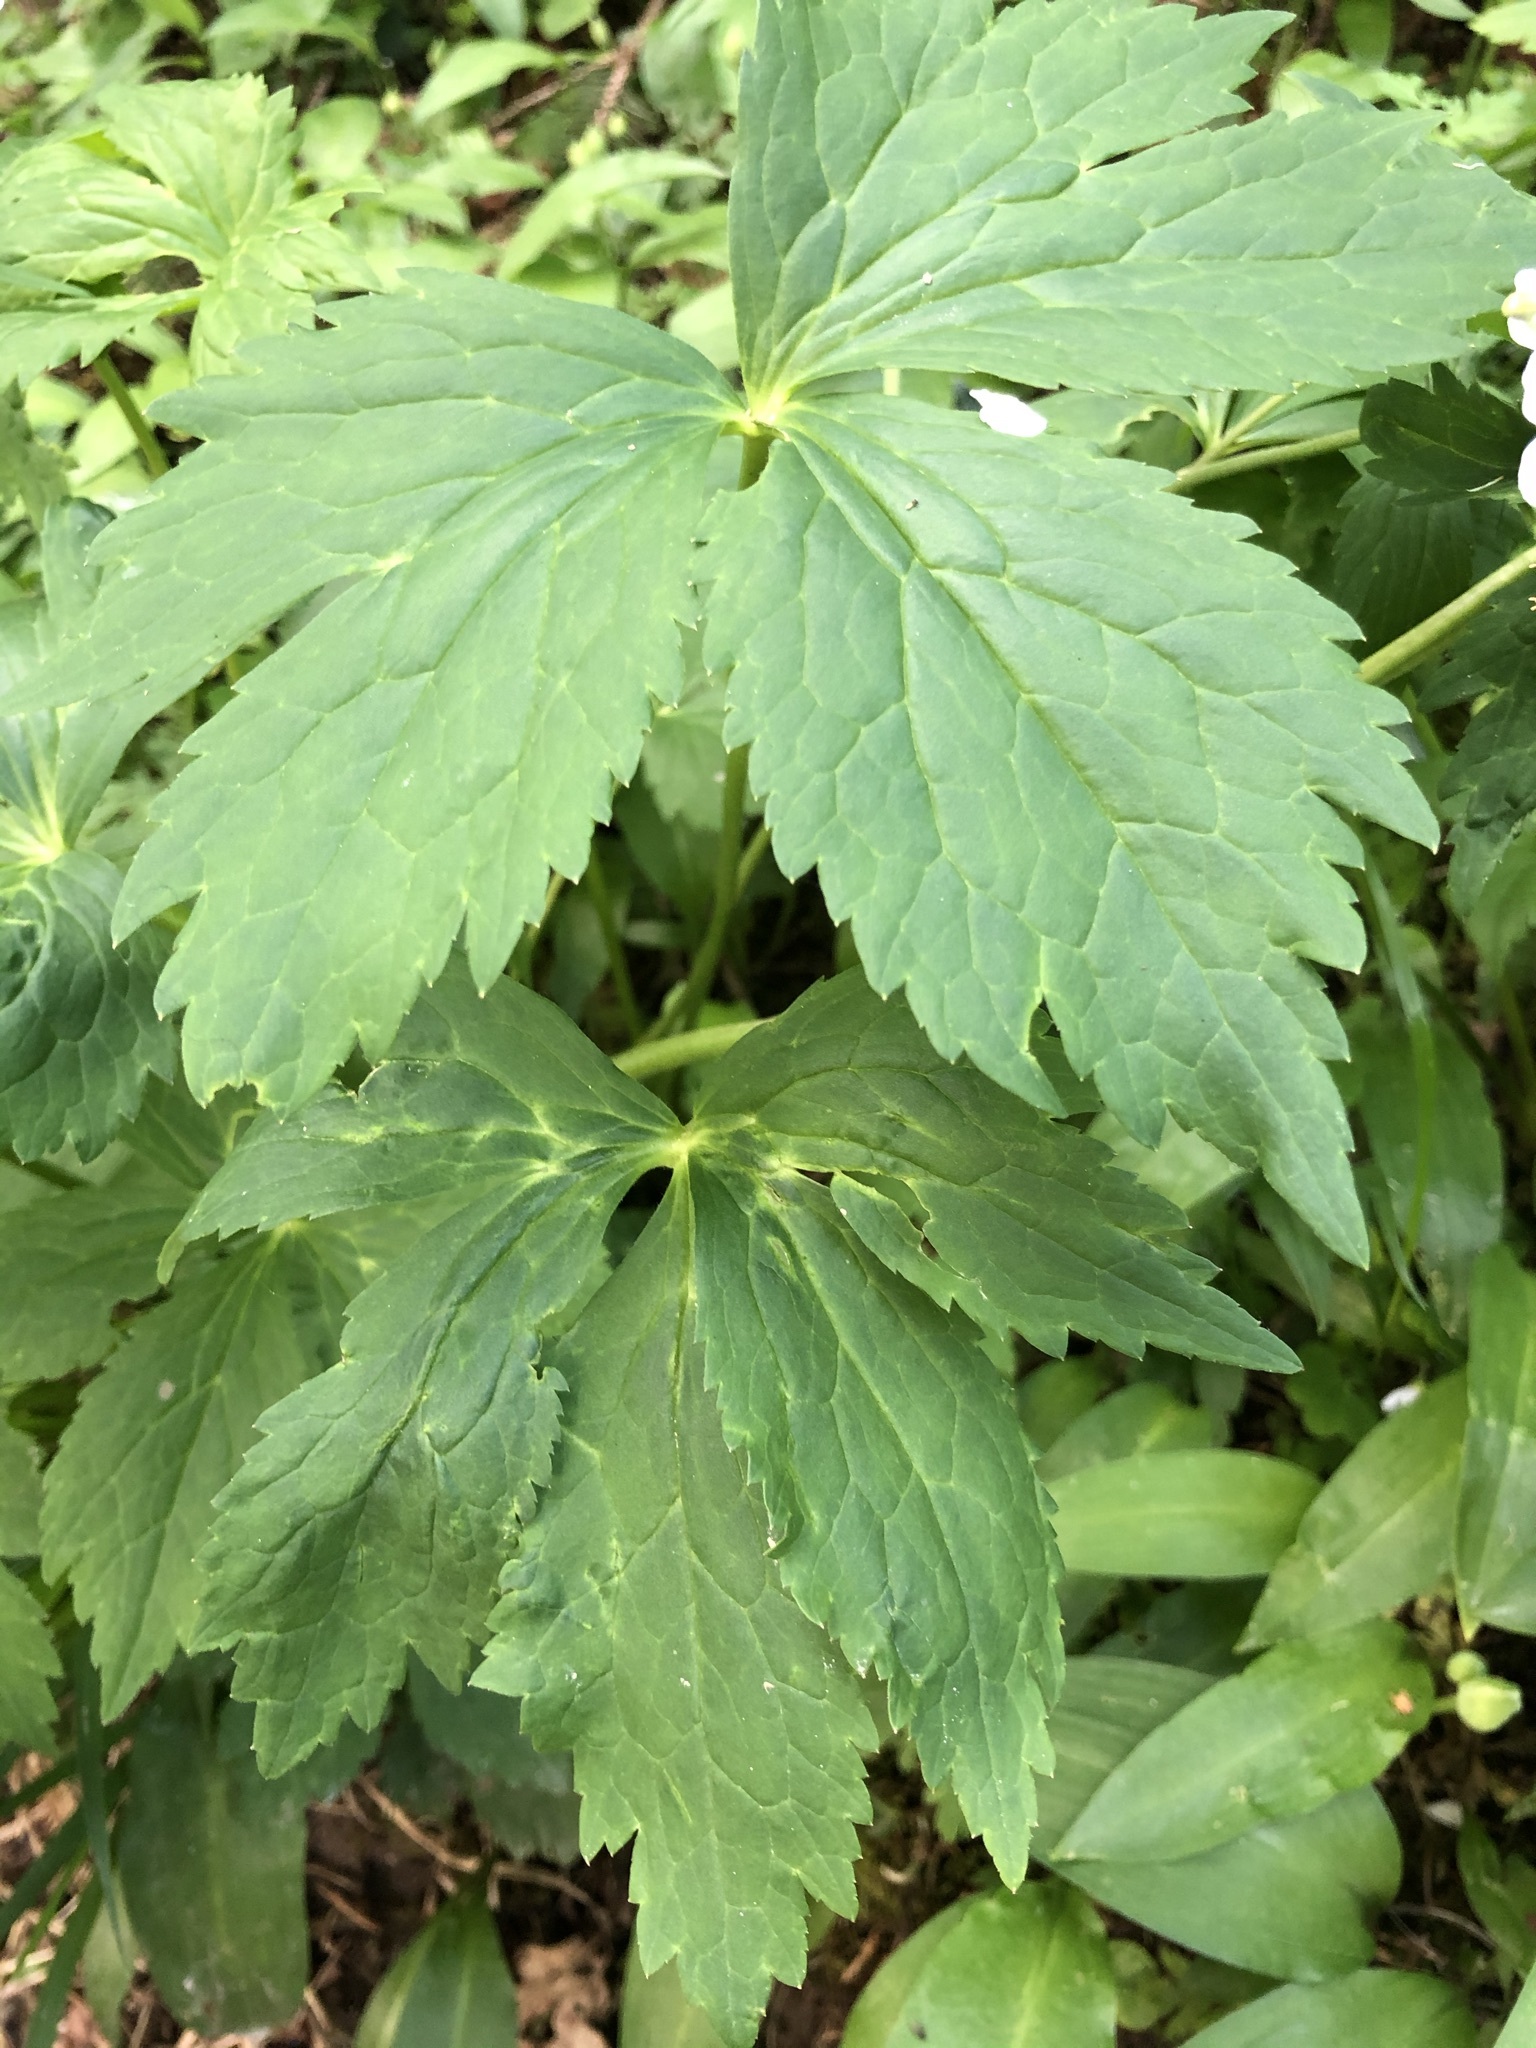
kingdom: Plantae
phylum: Tracheophyta
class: Magnoliopsida
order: Ranunculales
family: Ranunculaceae
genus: Ranunculus
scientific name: Ranunculus aconitifolius
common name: Aconite-leaved buttercup
